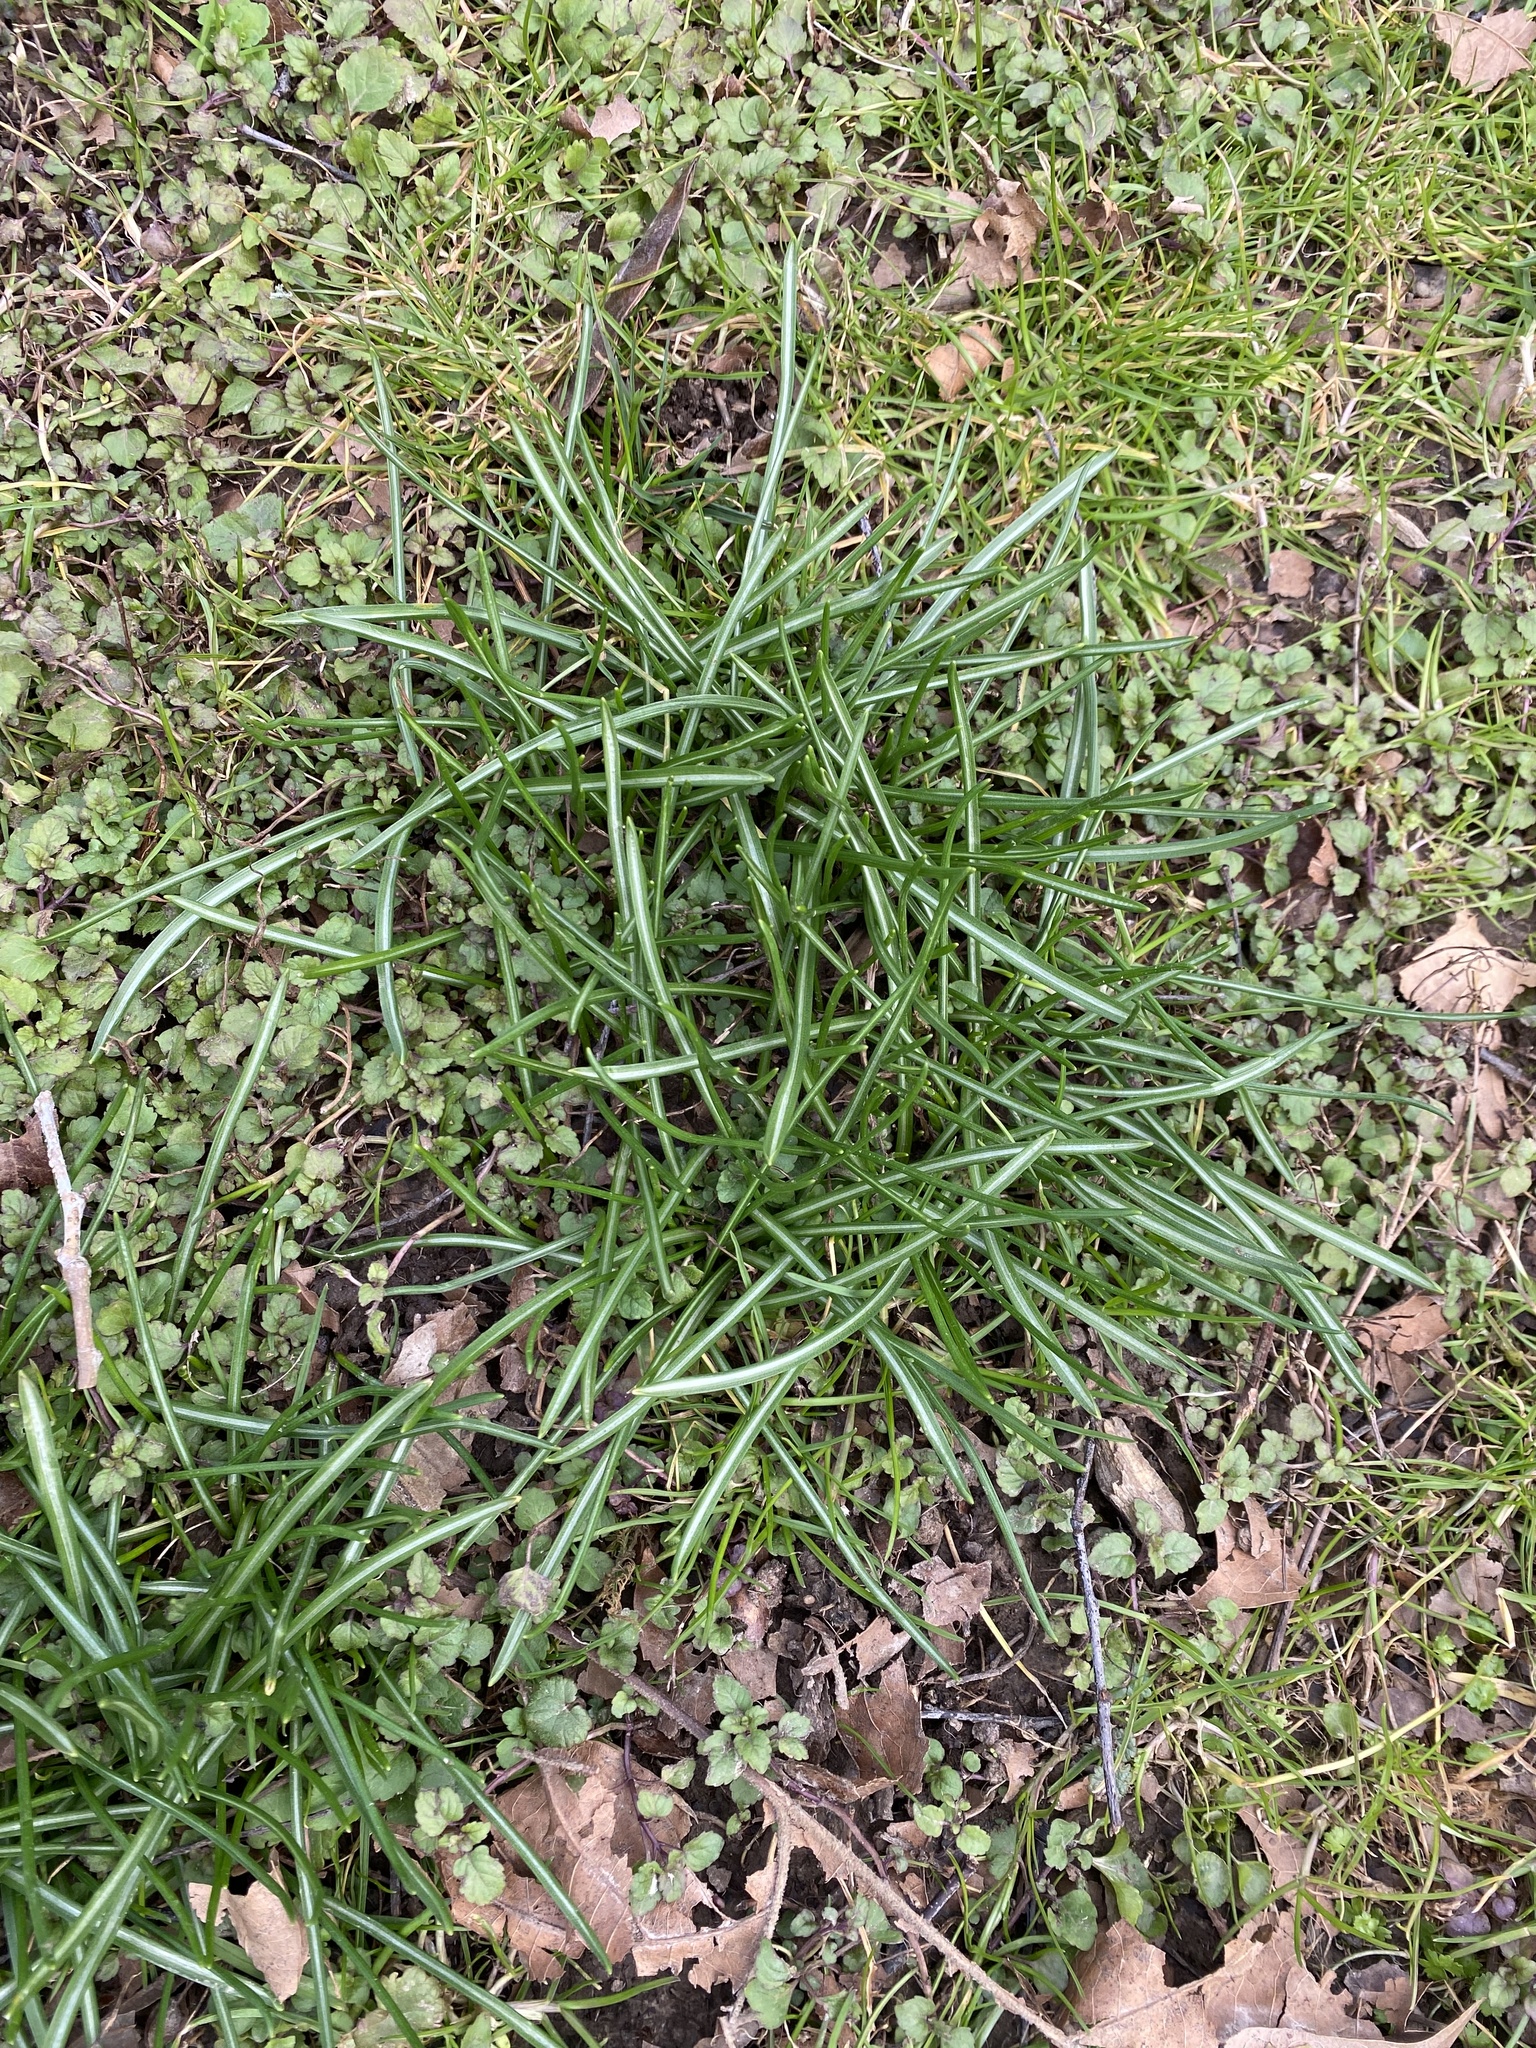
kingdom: Plantae
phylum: Tracheophyta
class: Liliopsida
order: Asparagales
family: Asparagaceae
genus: Ornithogalum
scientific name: Ornithogalum umbellatum
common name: Garden star-of-bethlehem
